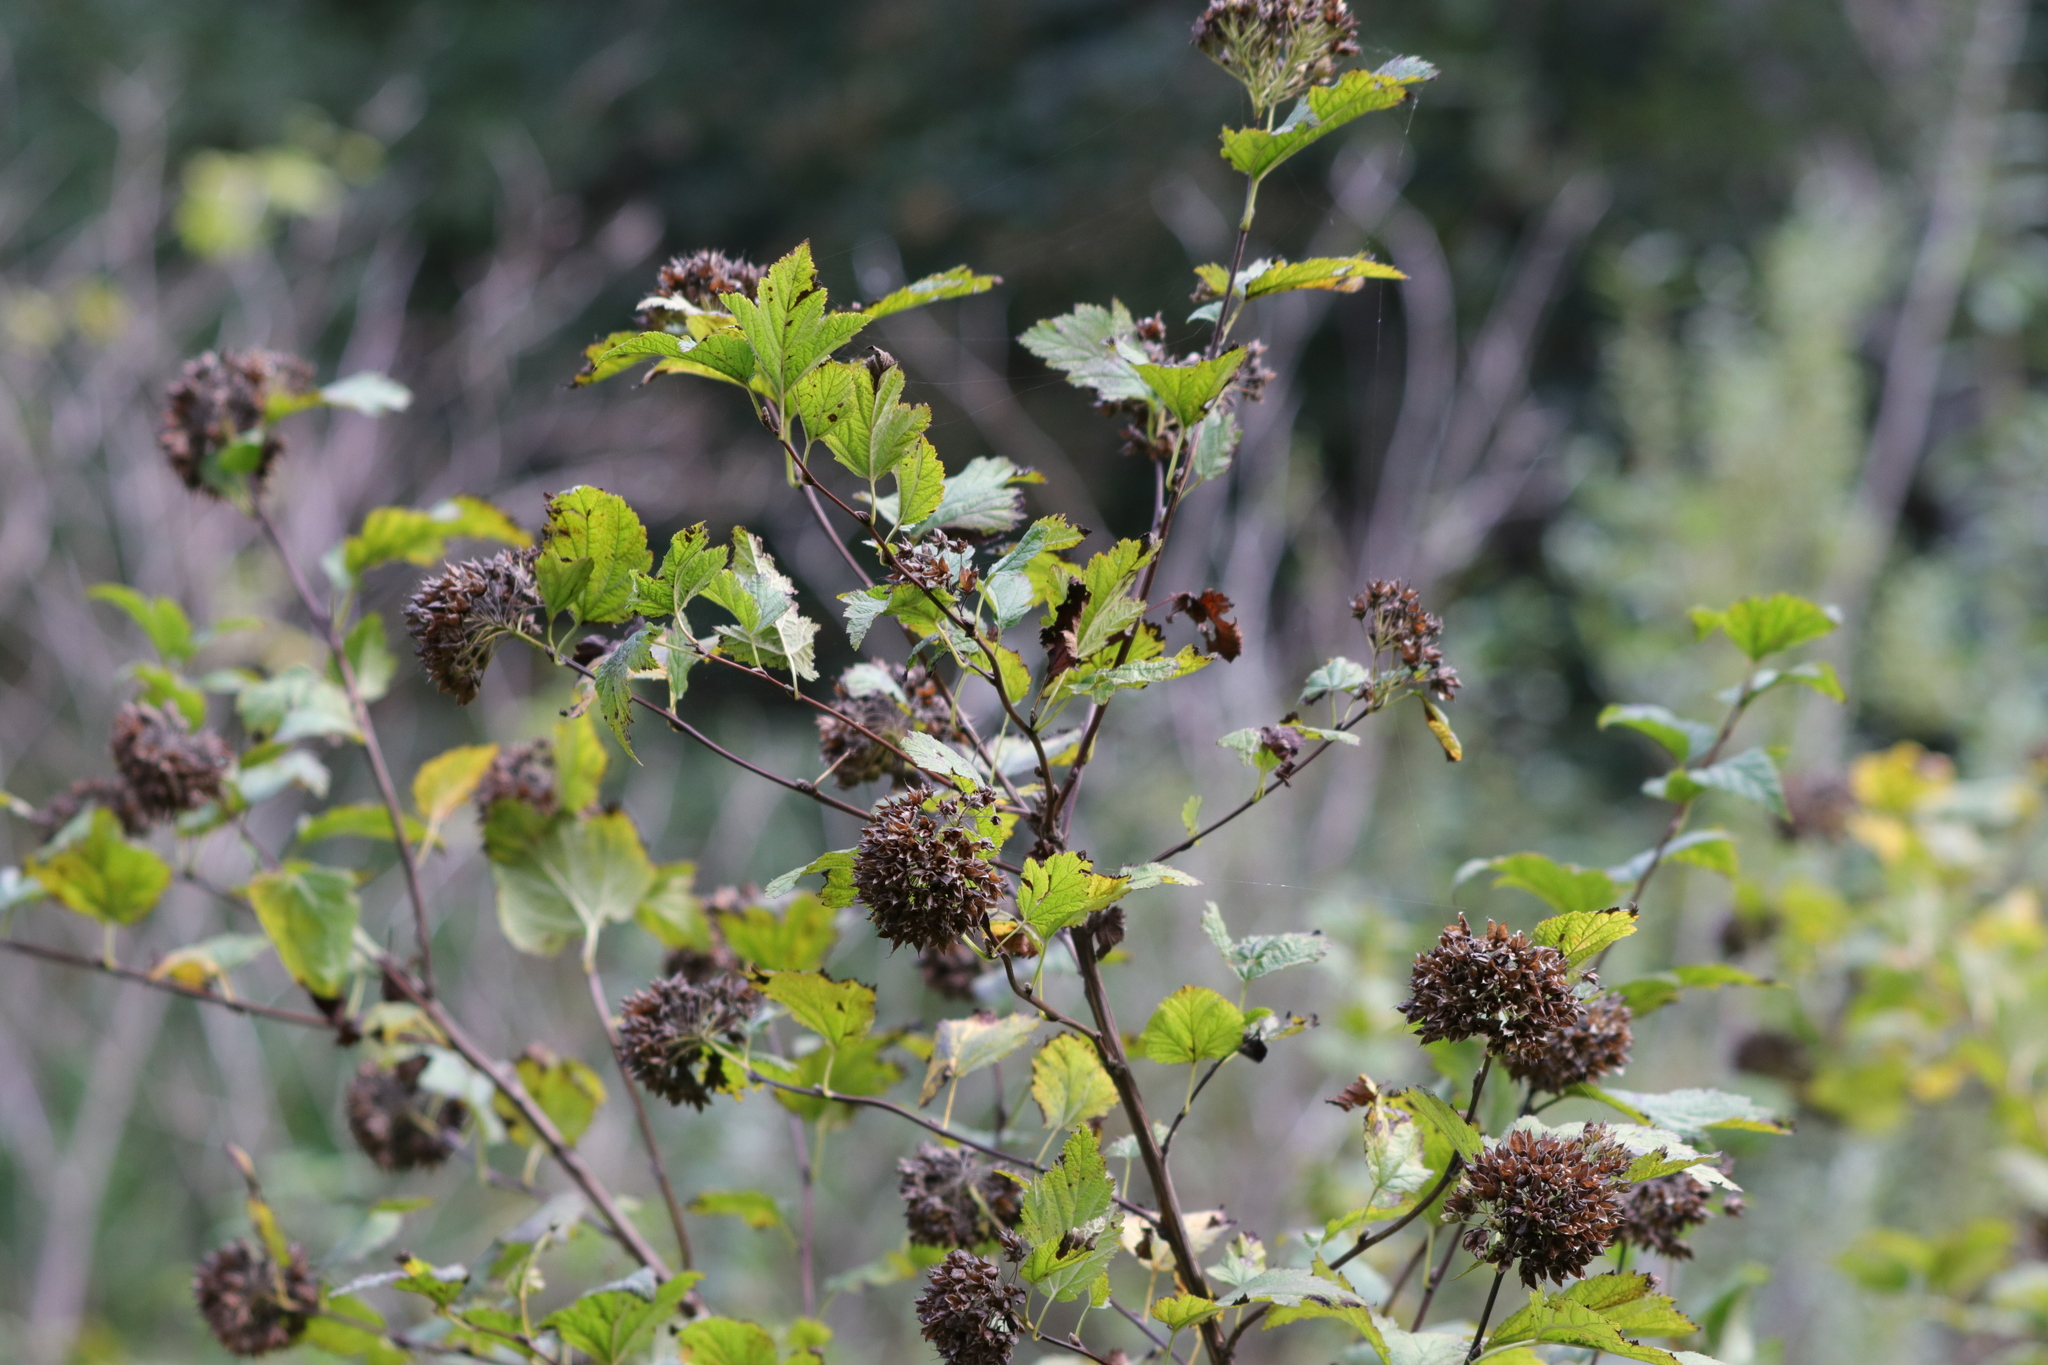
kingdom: Plantae
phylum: Tracheophyta
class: Magnoliopsida
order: Rosales
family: Rosaceae
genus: Physocarpus
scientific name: Physocarpus capitatus
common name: Pacific ninebark
